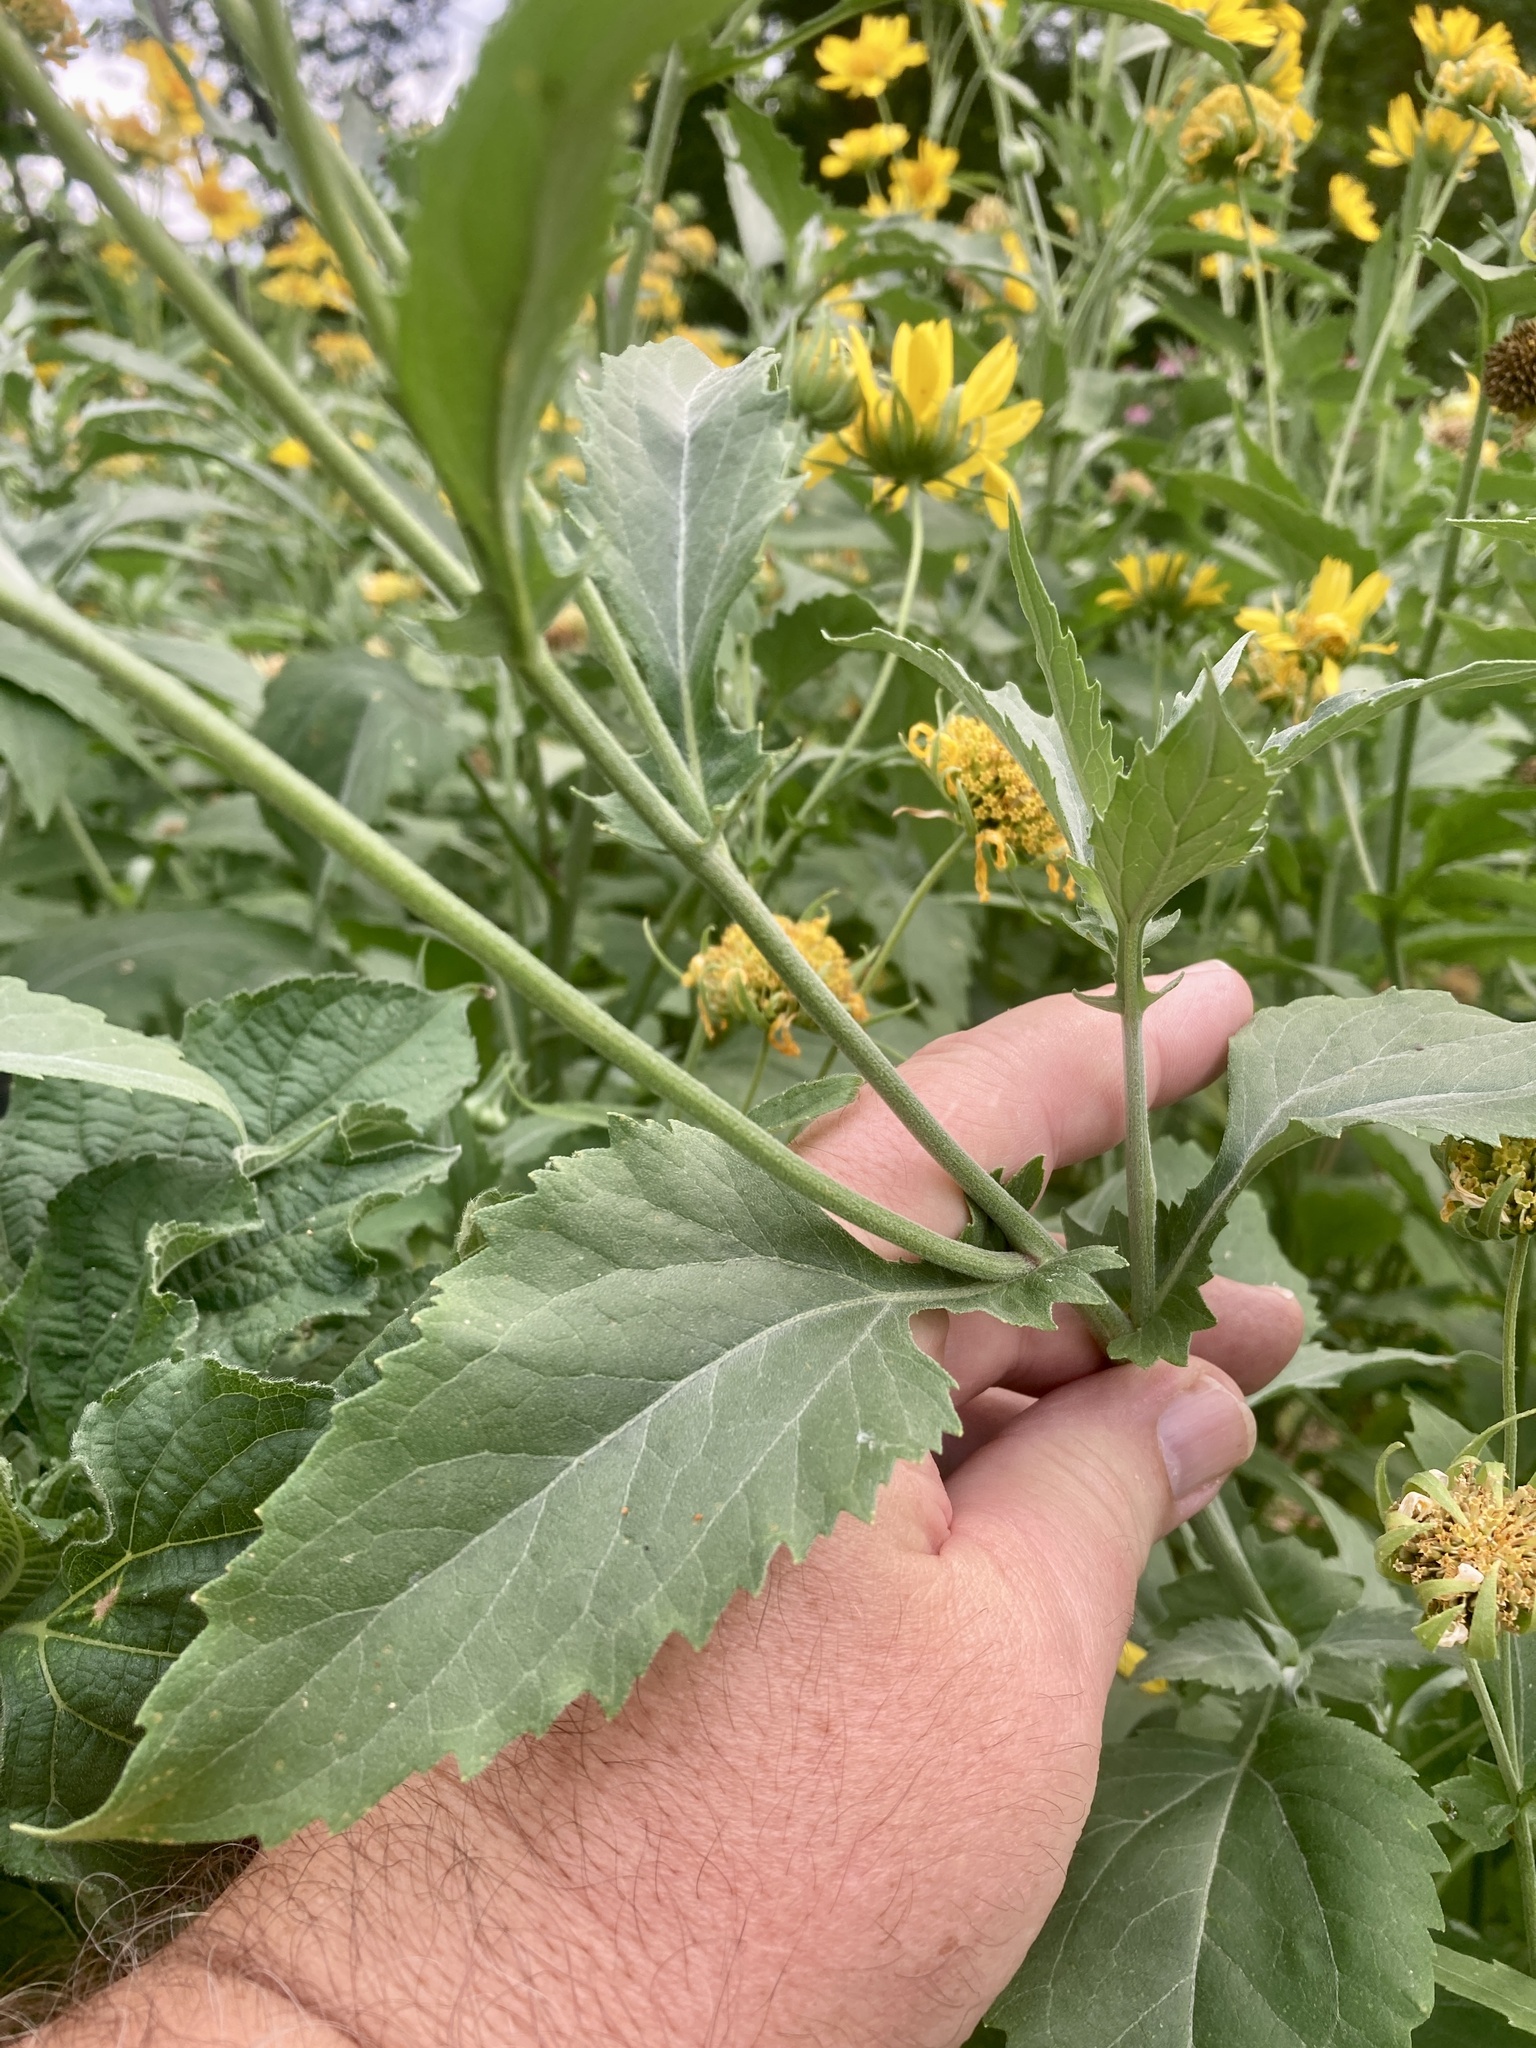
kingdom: Plantae
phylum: Tracheophyta
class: Magnoliopsida
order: Asterales
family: Asteraceae
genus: Verbesina
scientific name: Verbesina encelioides
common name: Golden crownbeard
